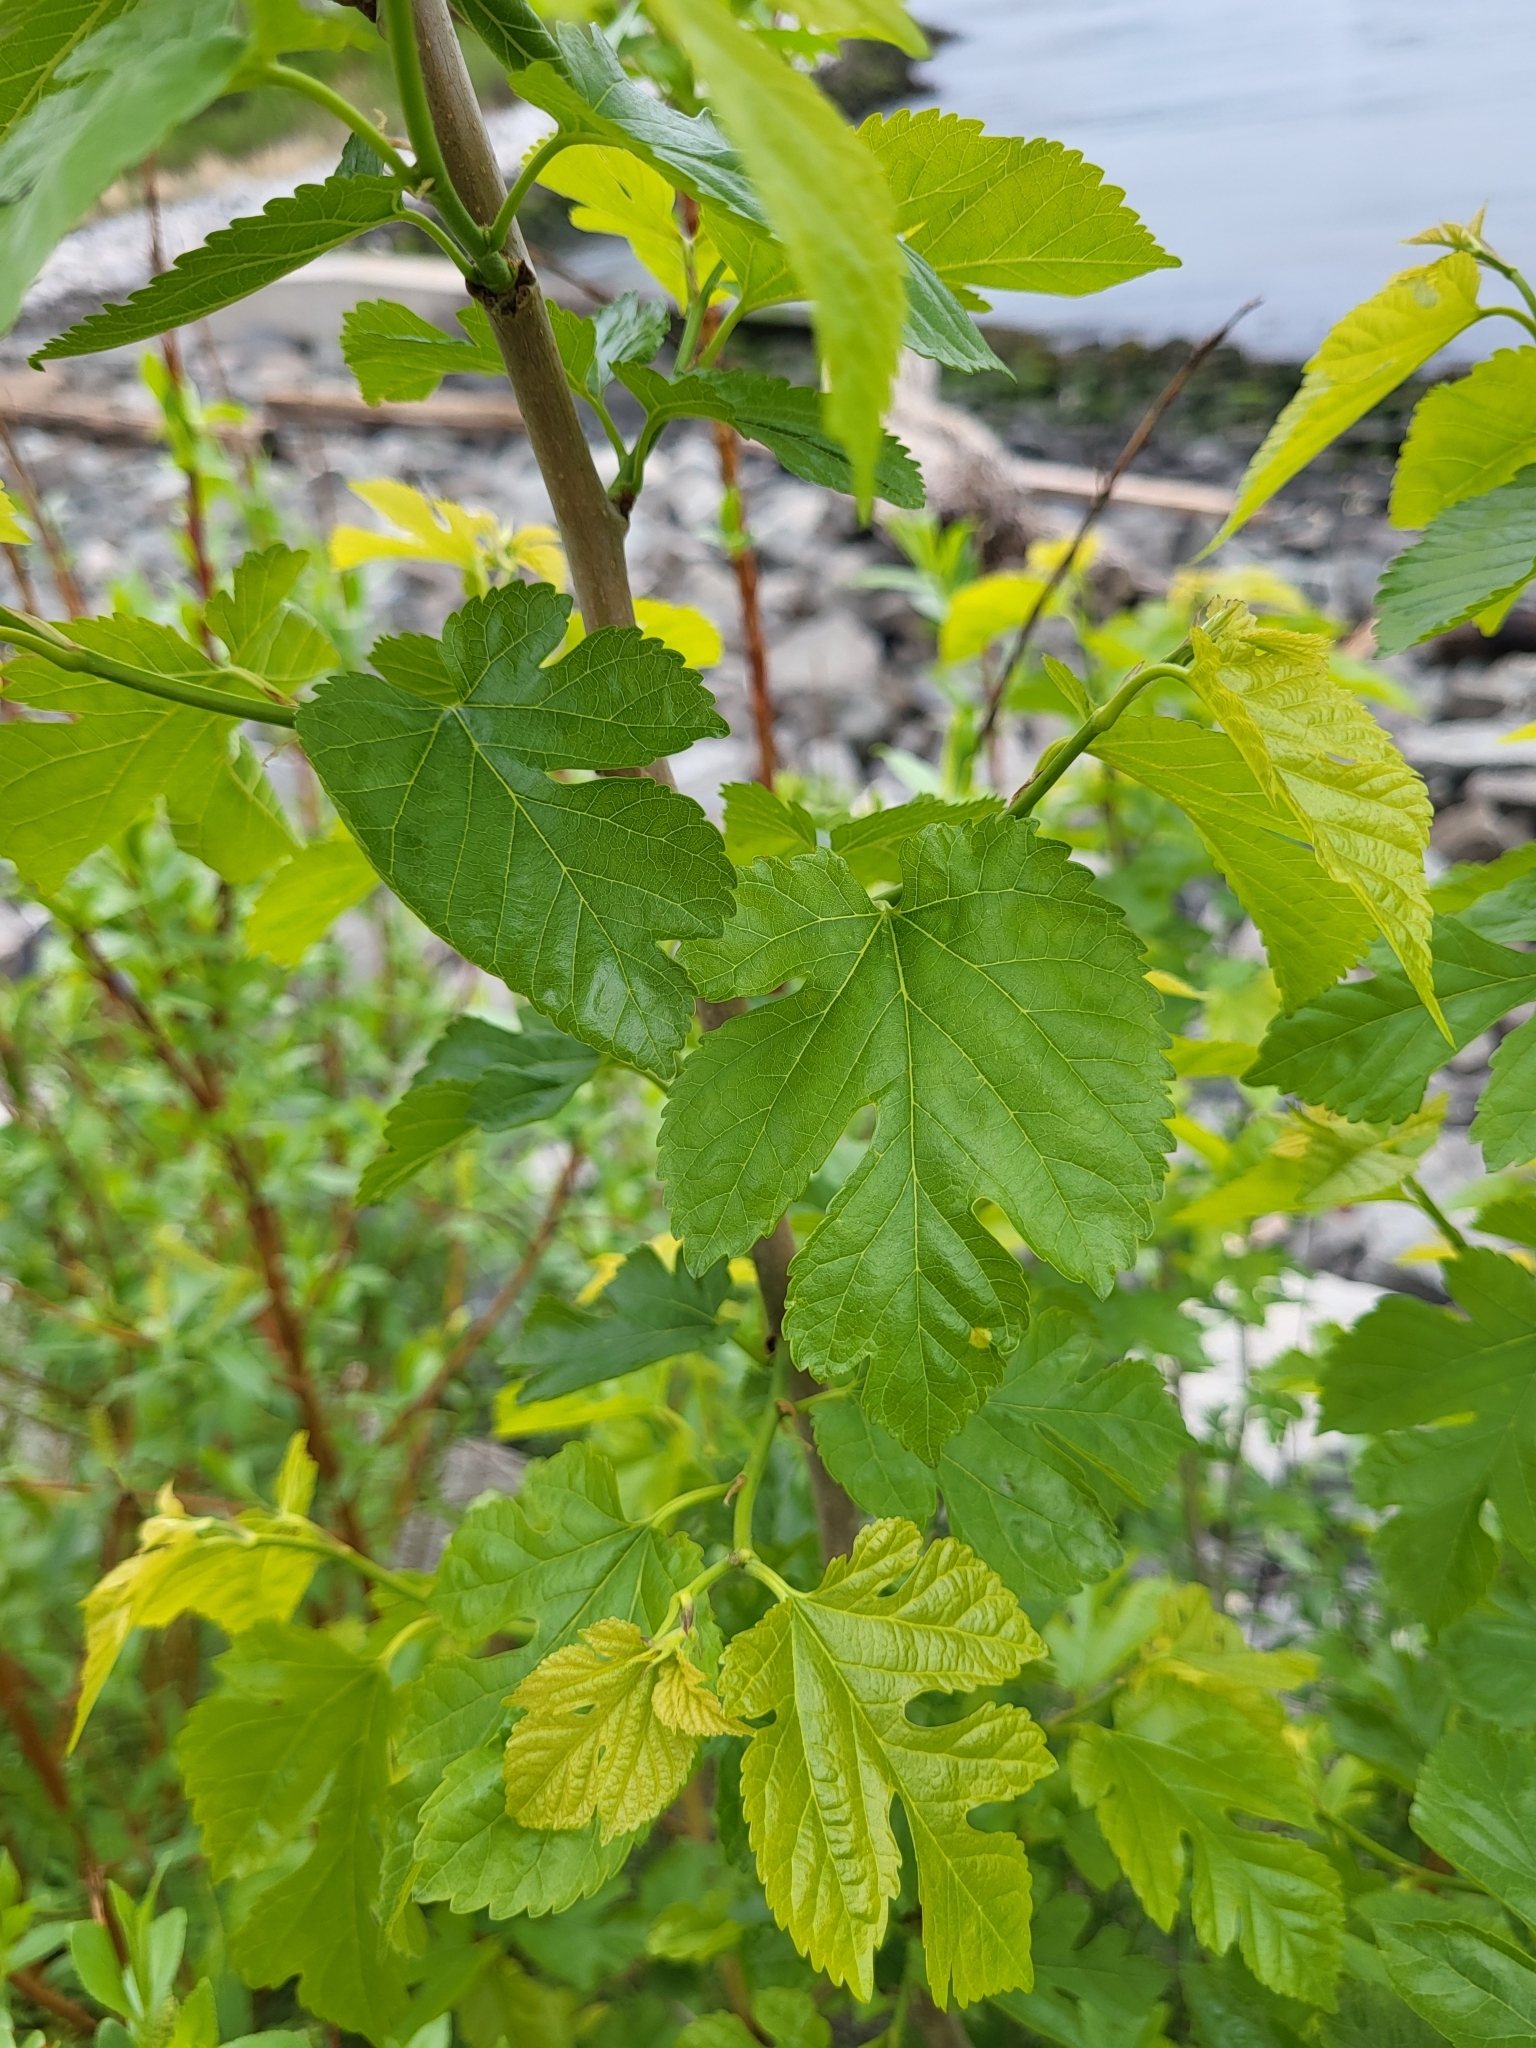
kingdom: Plantae
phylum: Tracheophyta
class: Magnoliopsida
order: Rosales
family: Moraceae
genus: Morus
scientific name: Morus alba
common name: White mulberry
